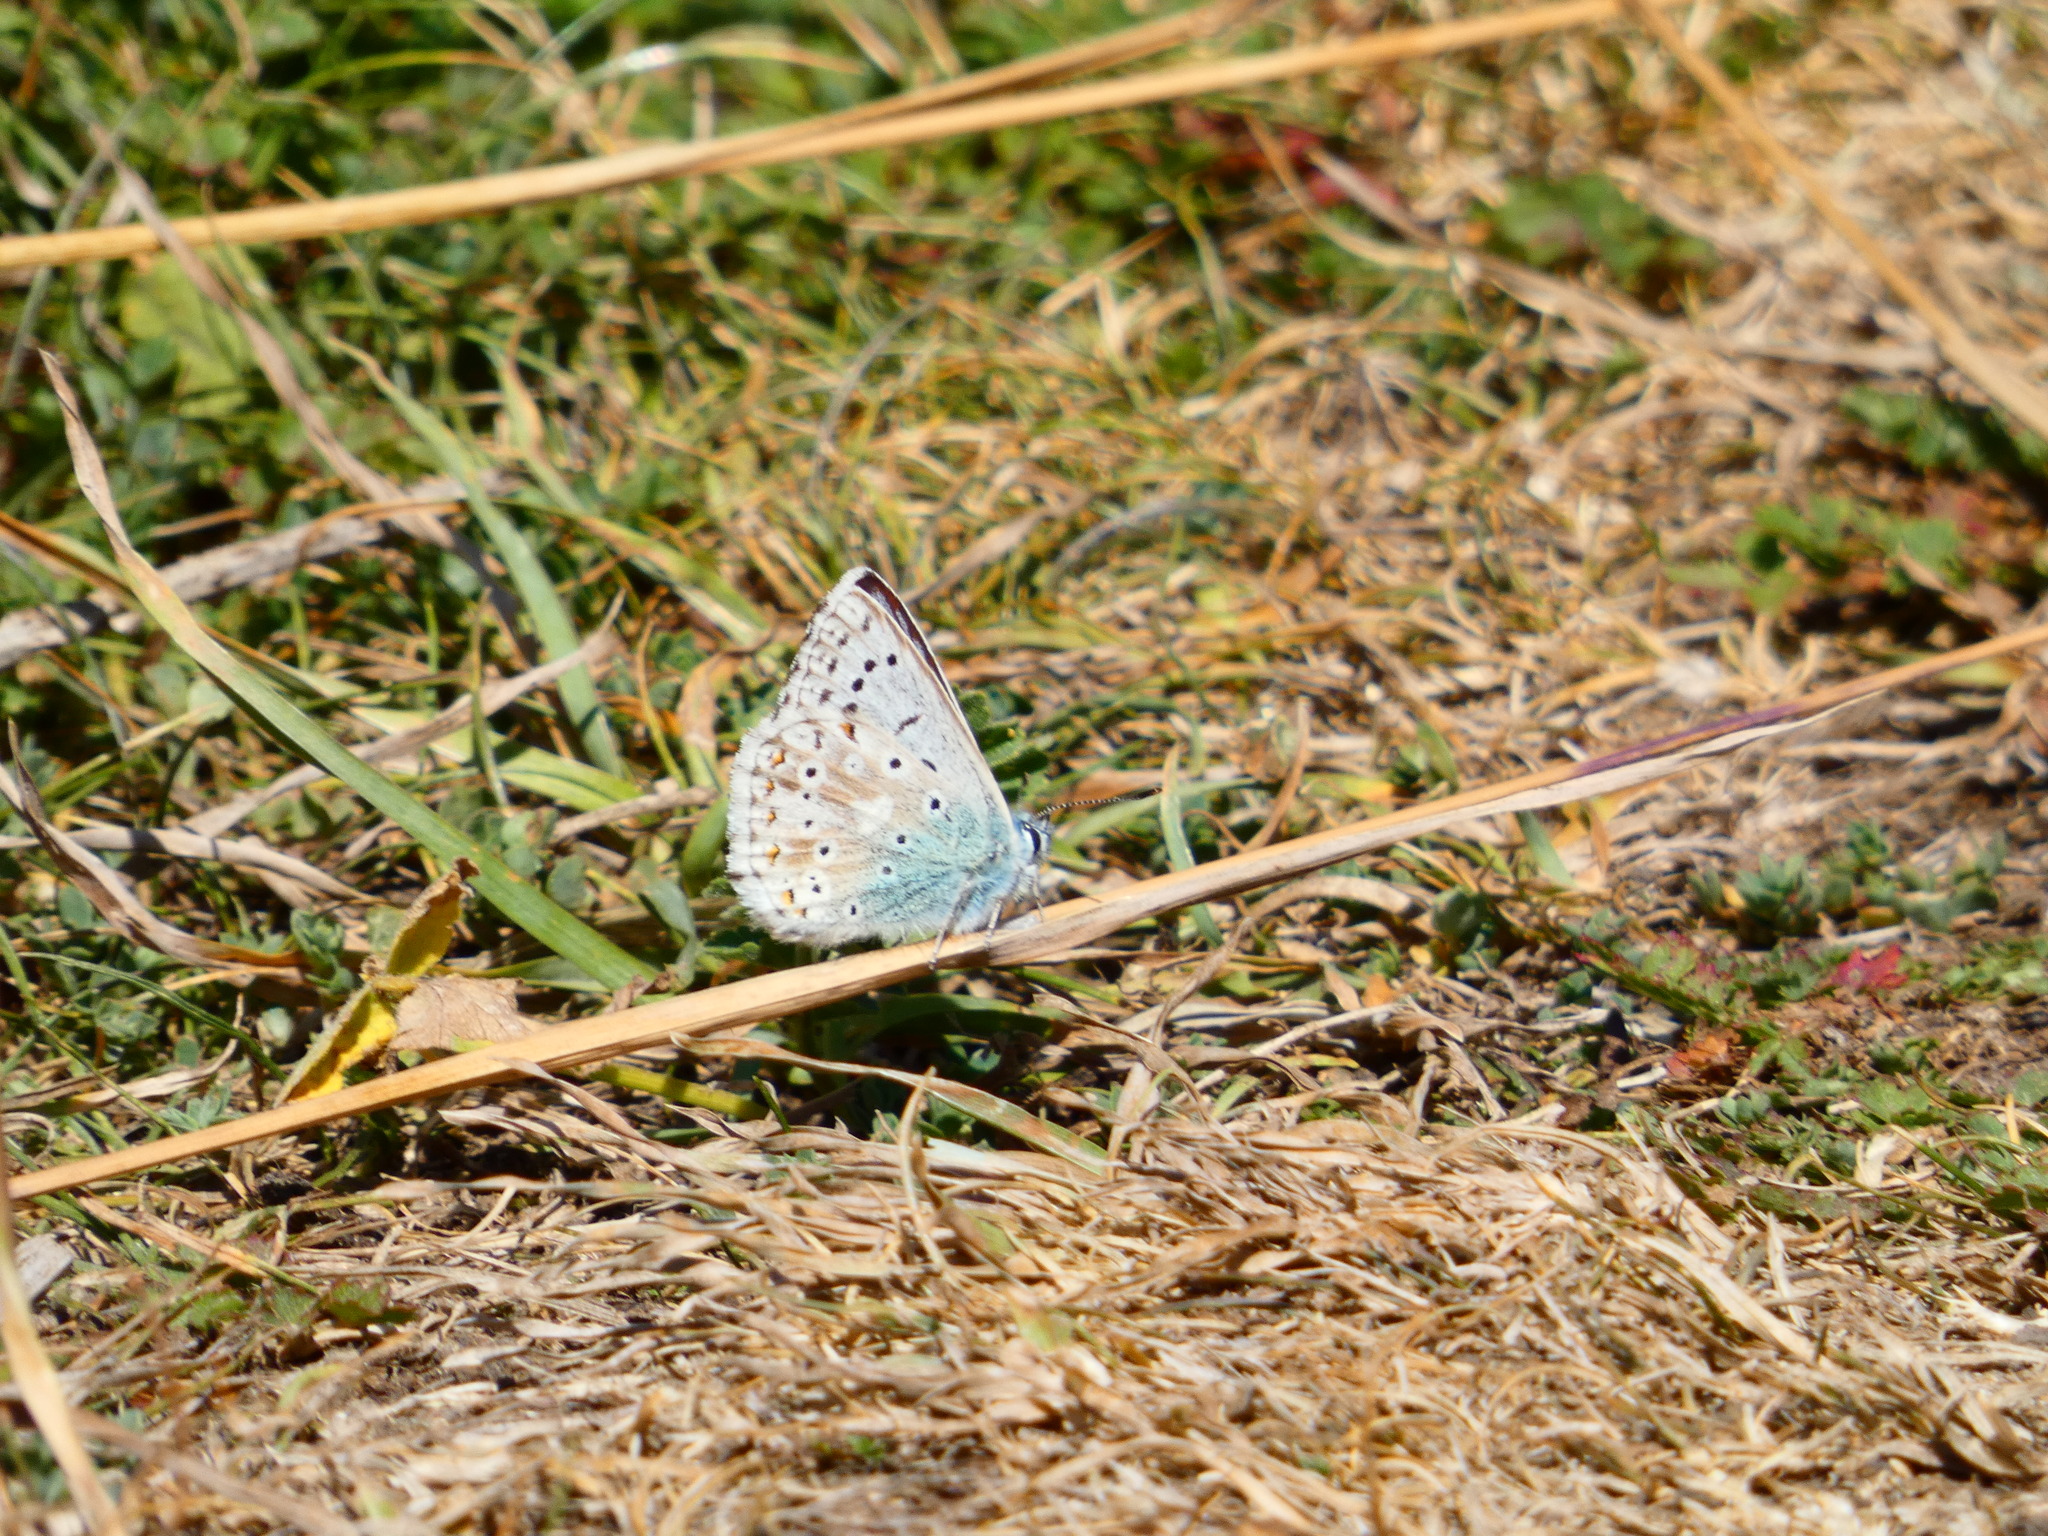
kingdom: Animalia
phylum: Arthropoda
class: Insecta
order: Lepidoptera
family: Lycaenidae
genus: Lysandra
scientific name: Lysandra coridon
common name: Chalkhill blue
